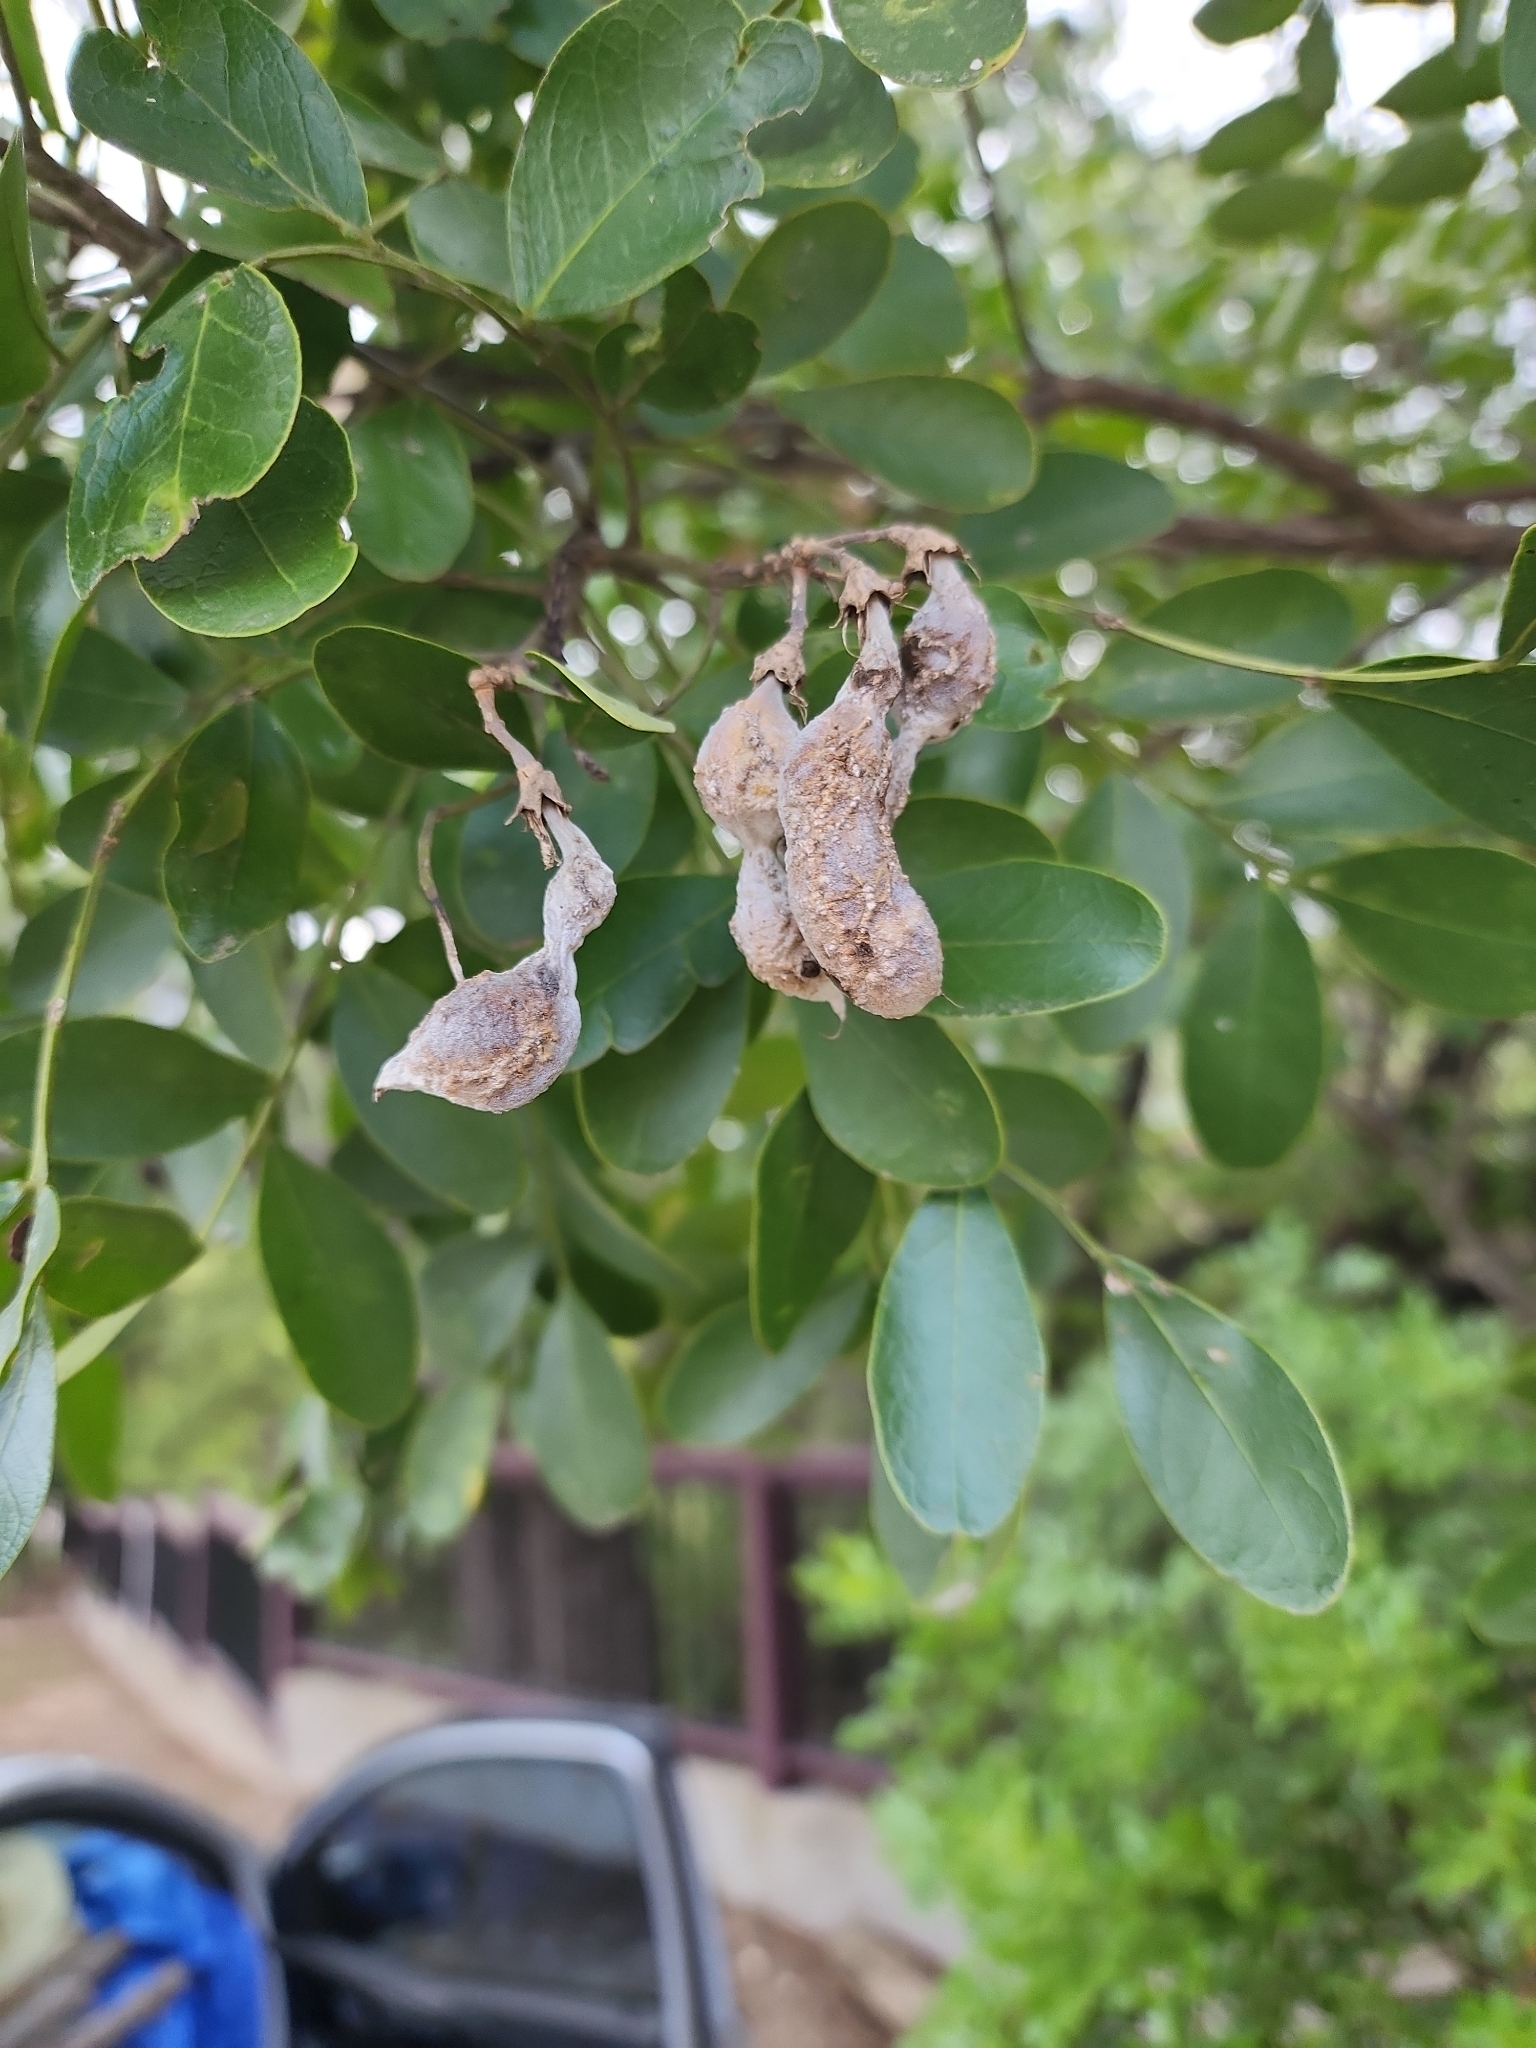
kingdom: Plantae
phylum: Tracheophyta
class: Magnoliopsida
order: Fabales
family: Fabaceae
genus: Dermatophyllum
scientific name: Dermatophyllum secundiflorum
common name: Texas-mountain-laurel
